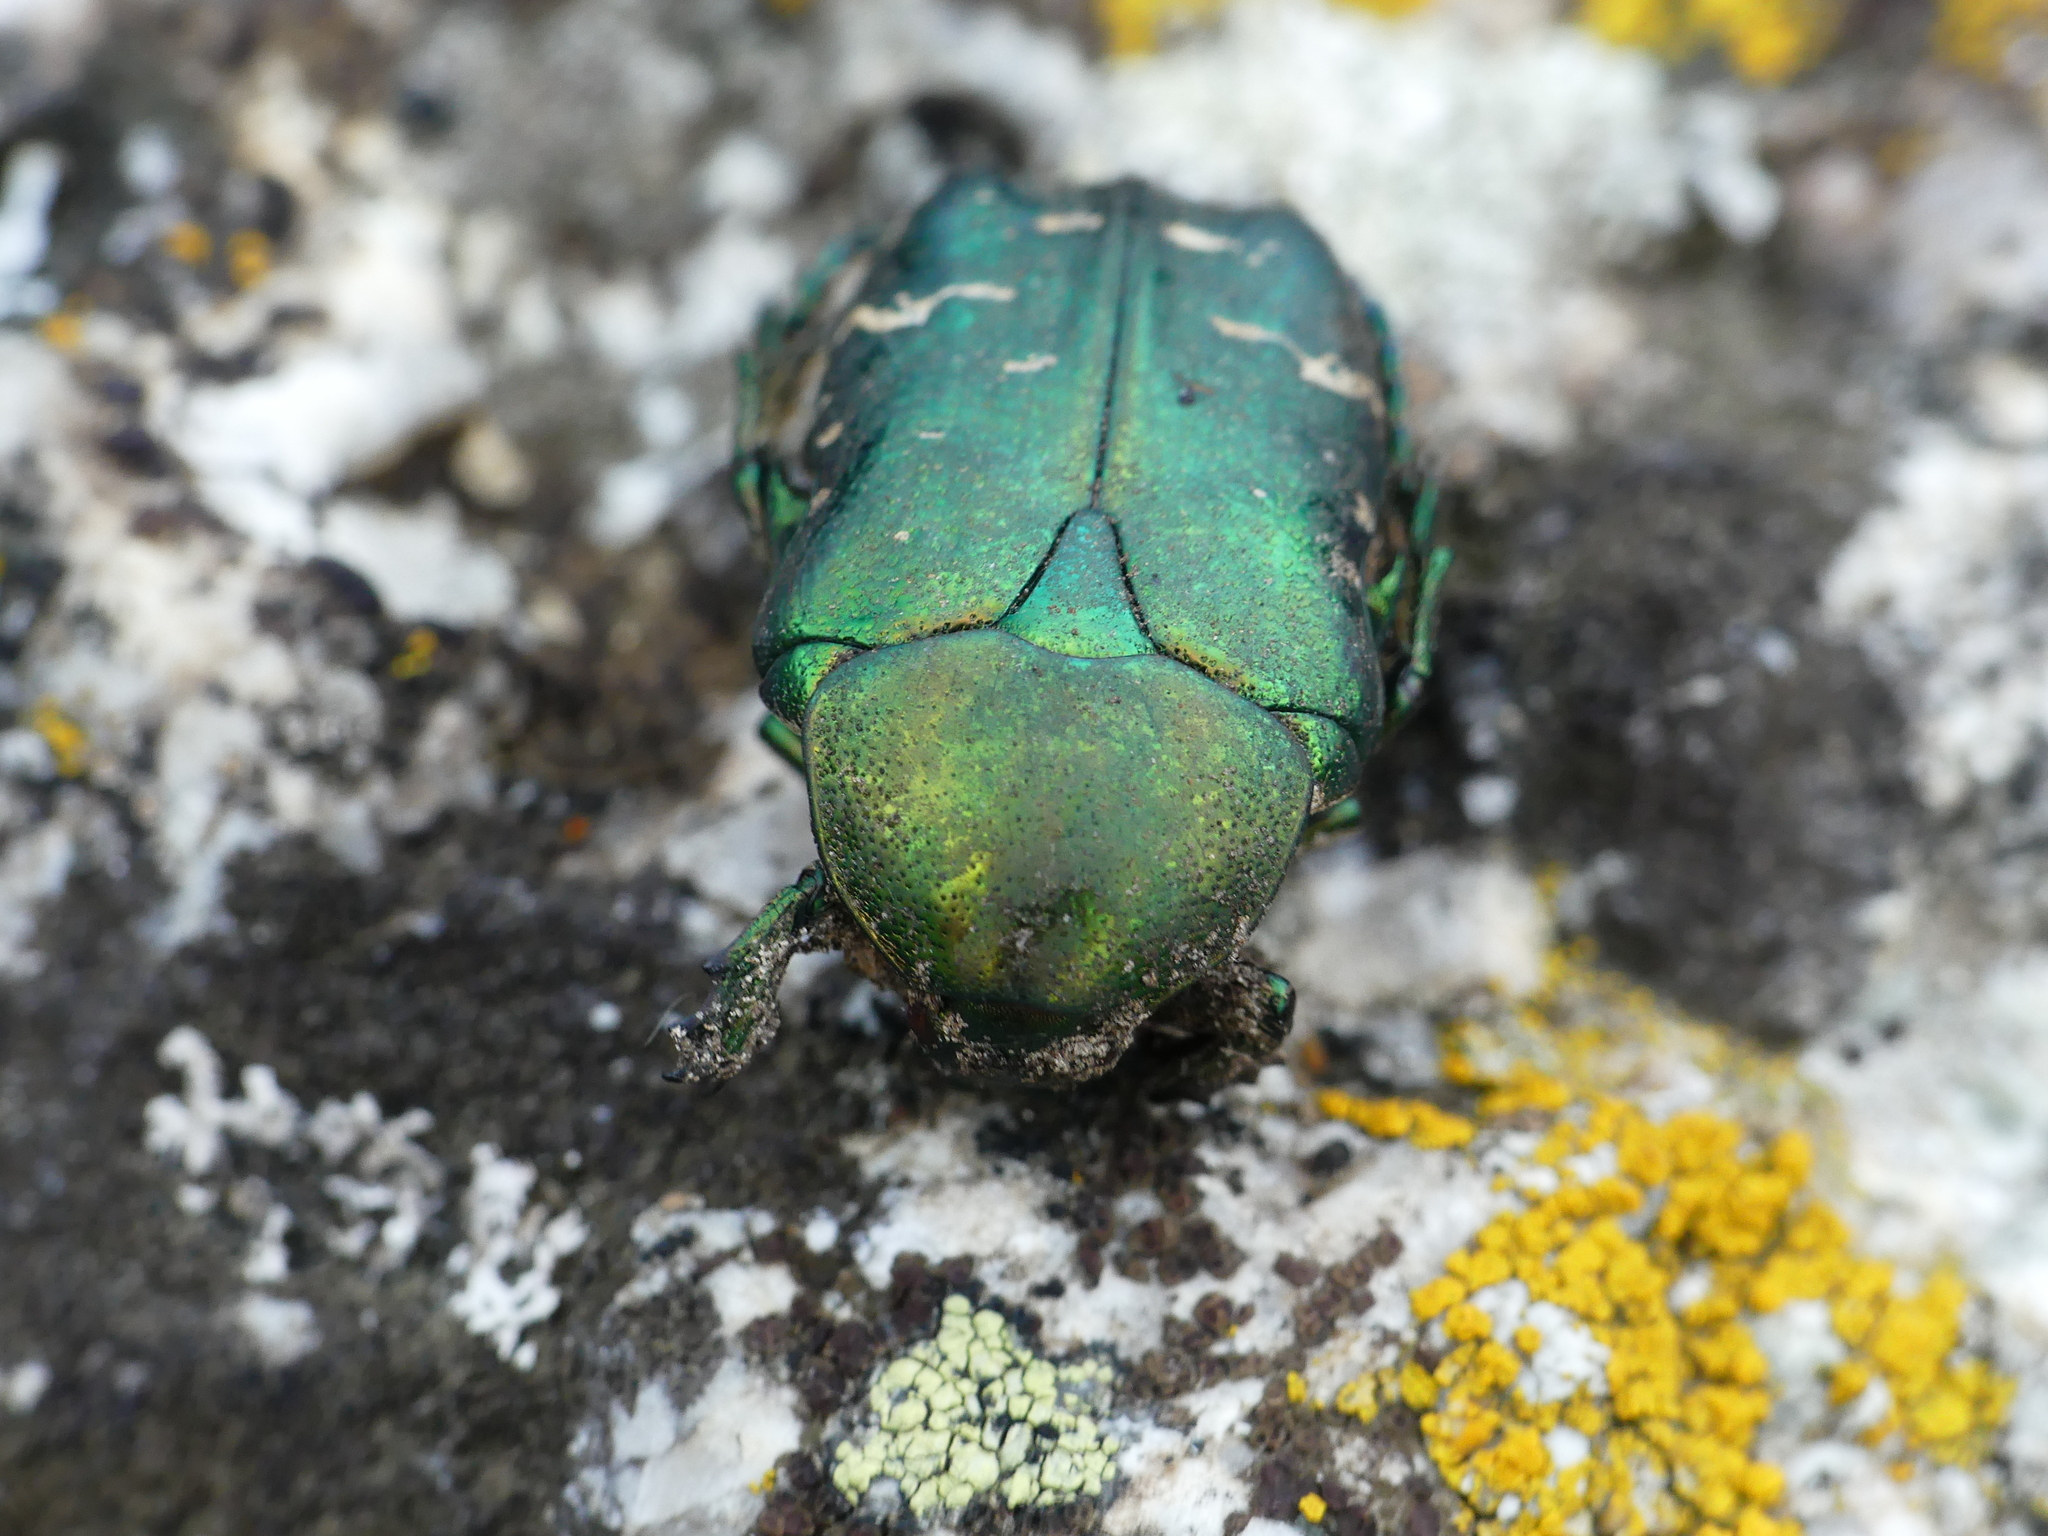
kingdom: Animalia
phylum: Arthropoda
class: Insecta
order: Coleoptera
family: Scarabaeidae
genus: Cetonia
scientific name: Cetonia aurata
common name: Rose chafer
